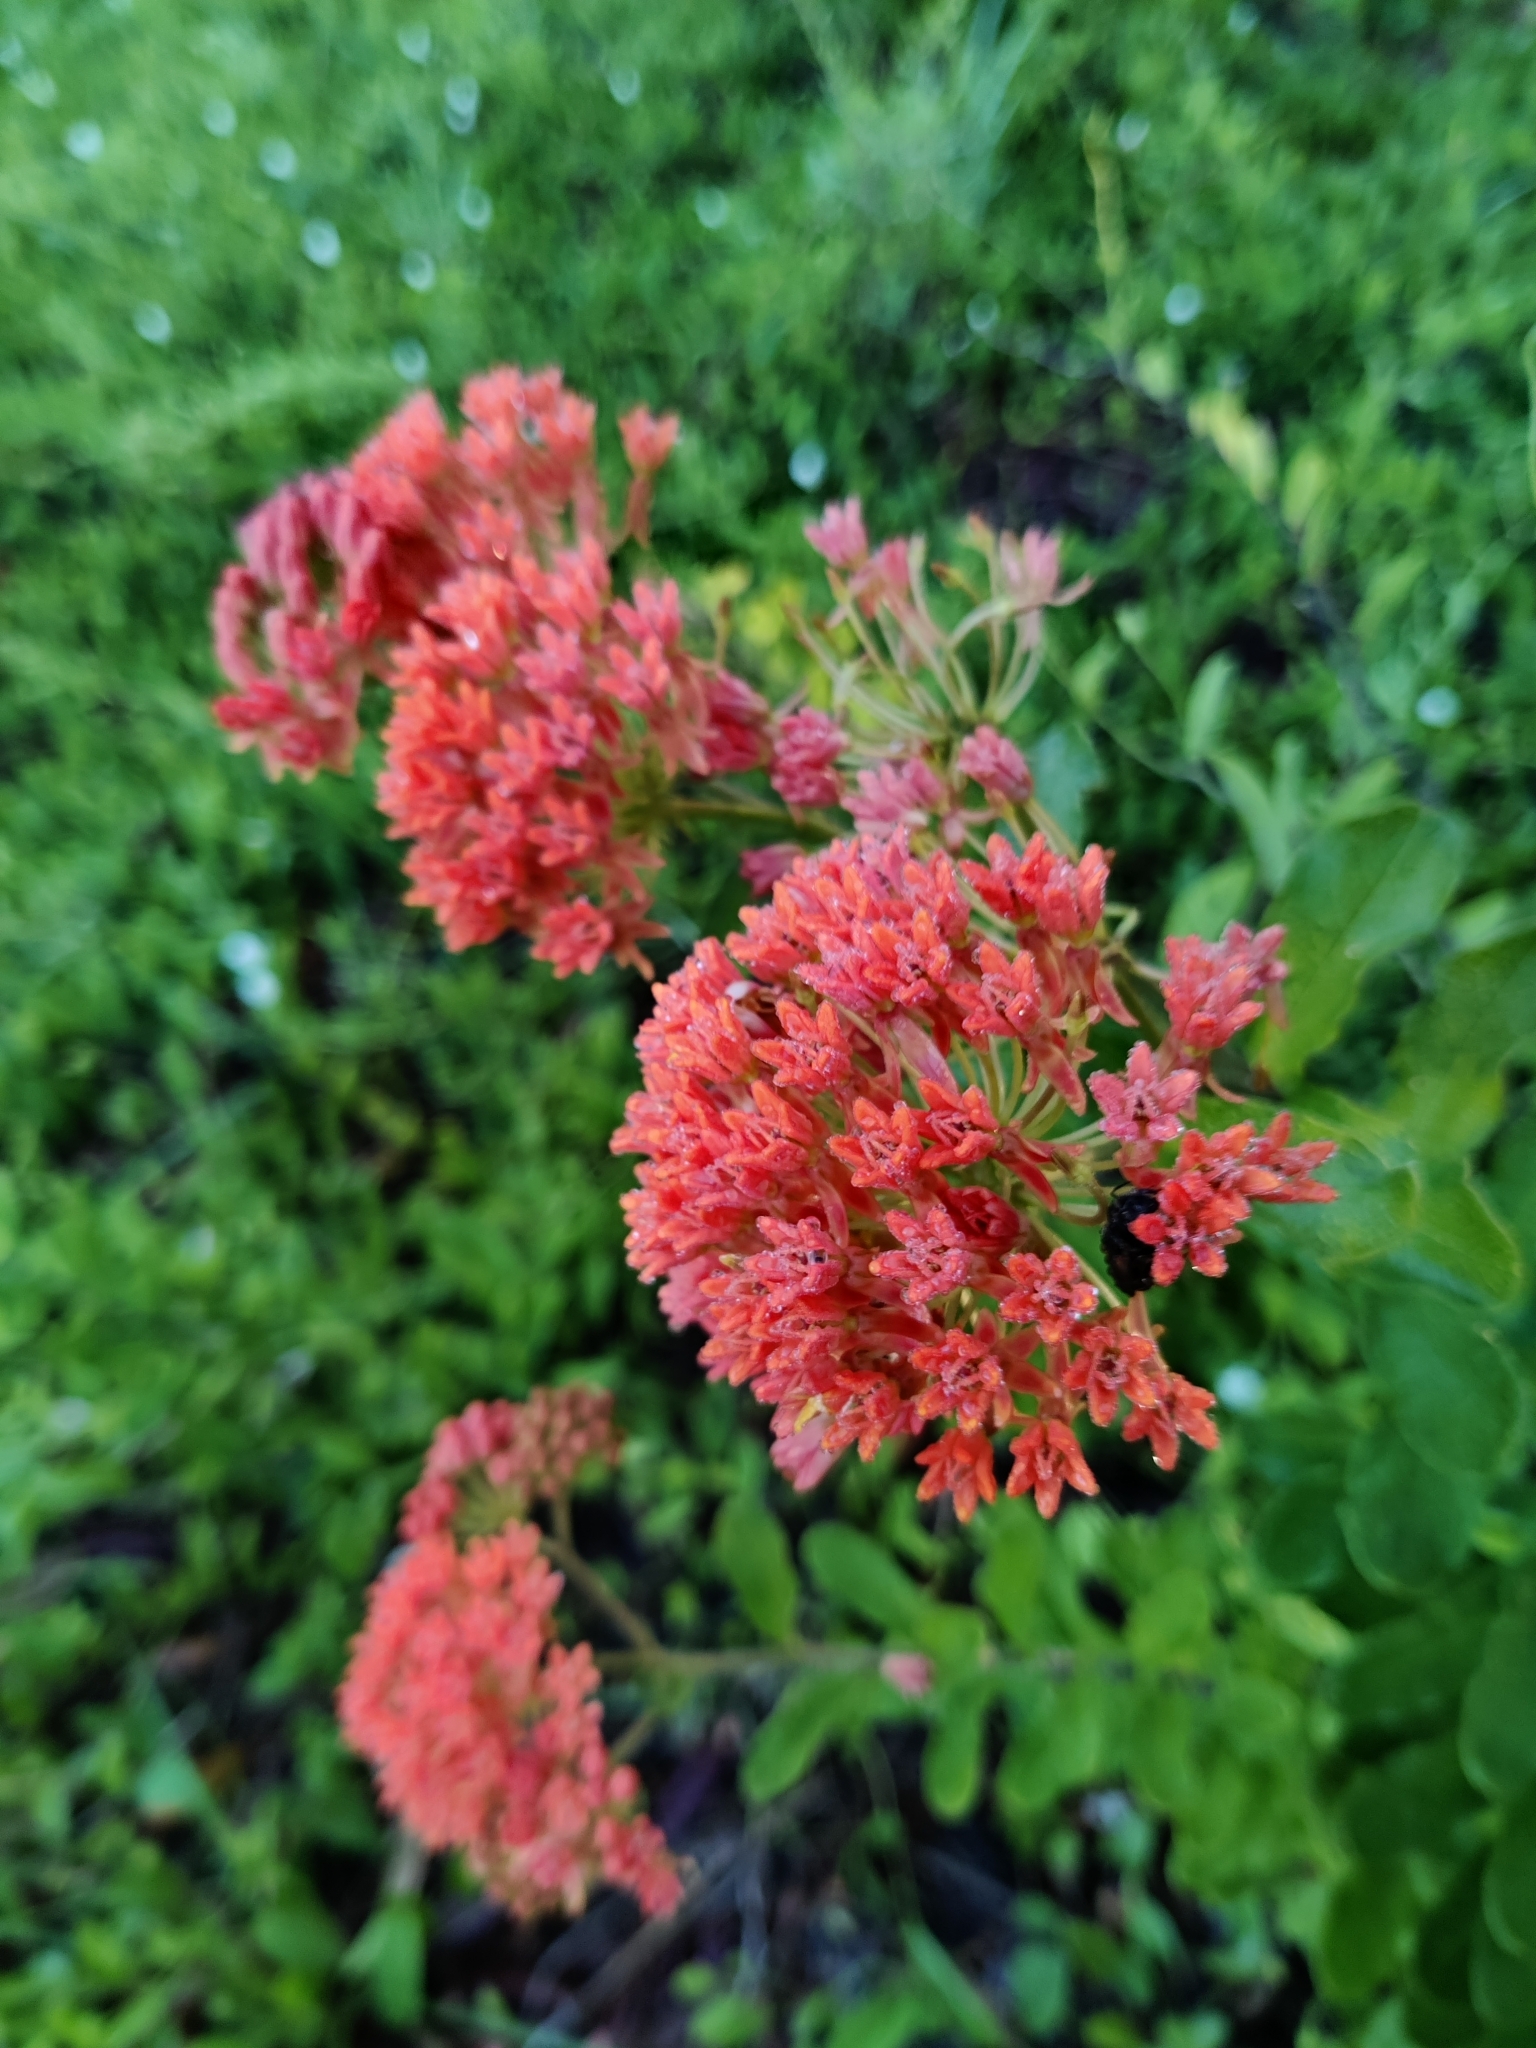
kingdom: Plantae
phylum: Tracheophyta
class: Magnoliopsida
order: Gentianales
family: Apocynaceae
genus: Asclepias
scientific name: Asclepias tuberosa
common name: Butterfly milkweed
